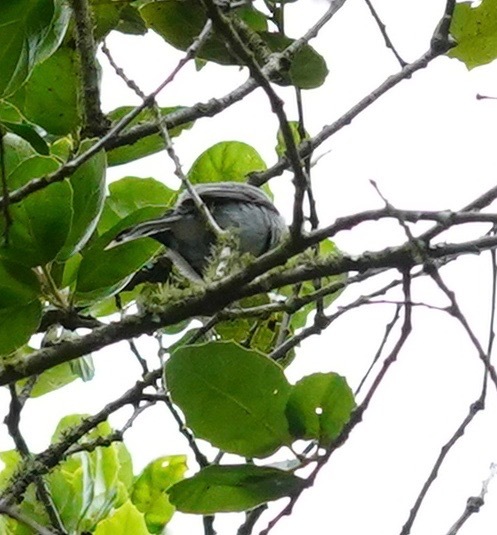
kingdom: Animalia
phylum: Chordata
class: Aves
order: Passeriformes
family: Polioptilidae
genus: Polioptila
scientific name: Polioptila caerulea
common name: Blue-gray gnatcatcher
